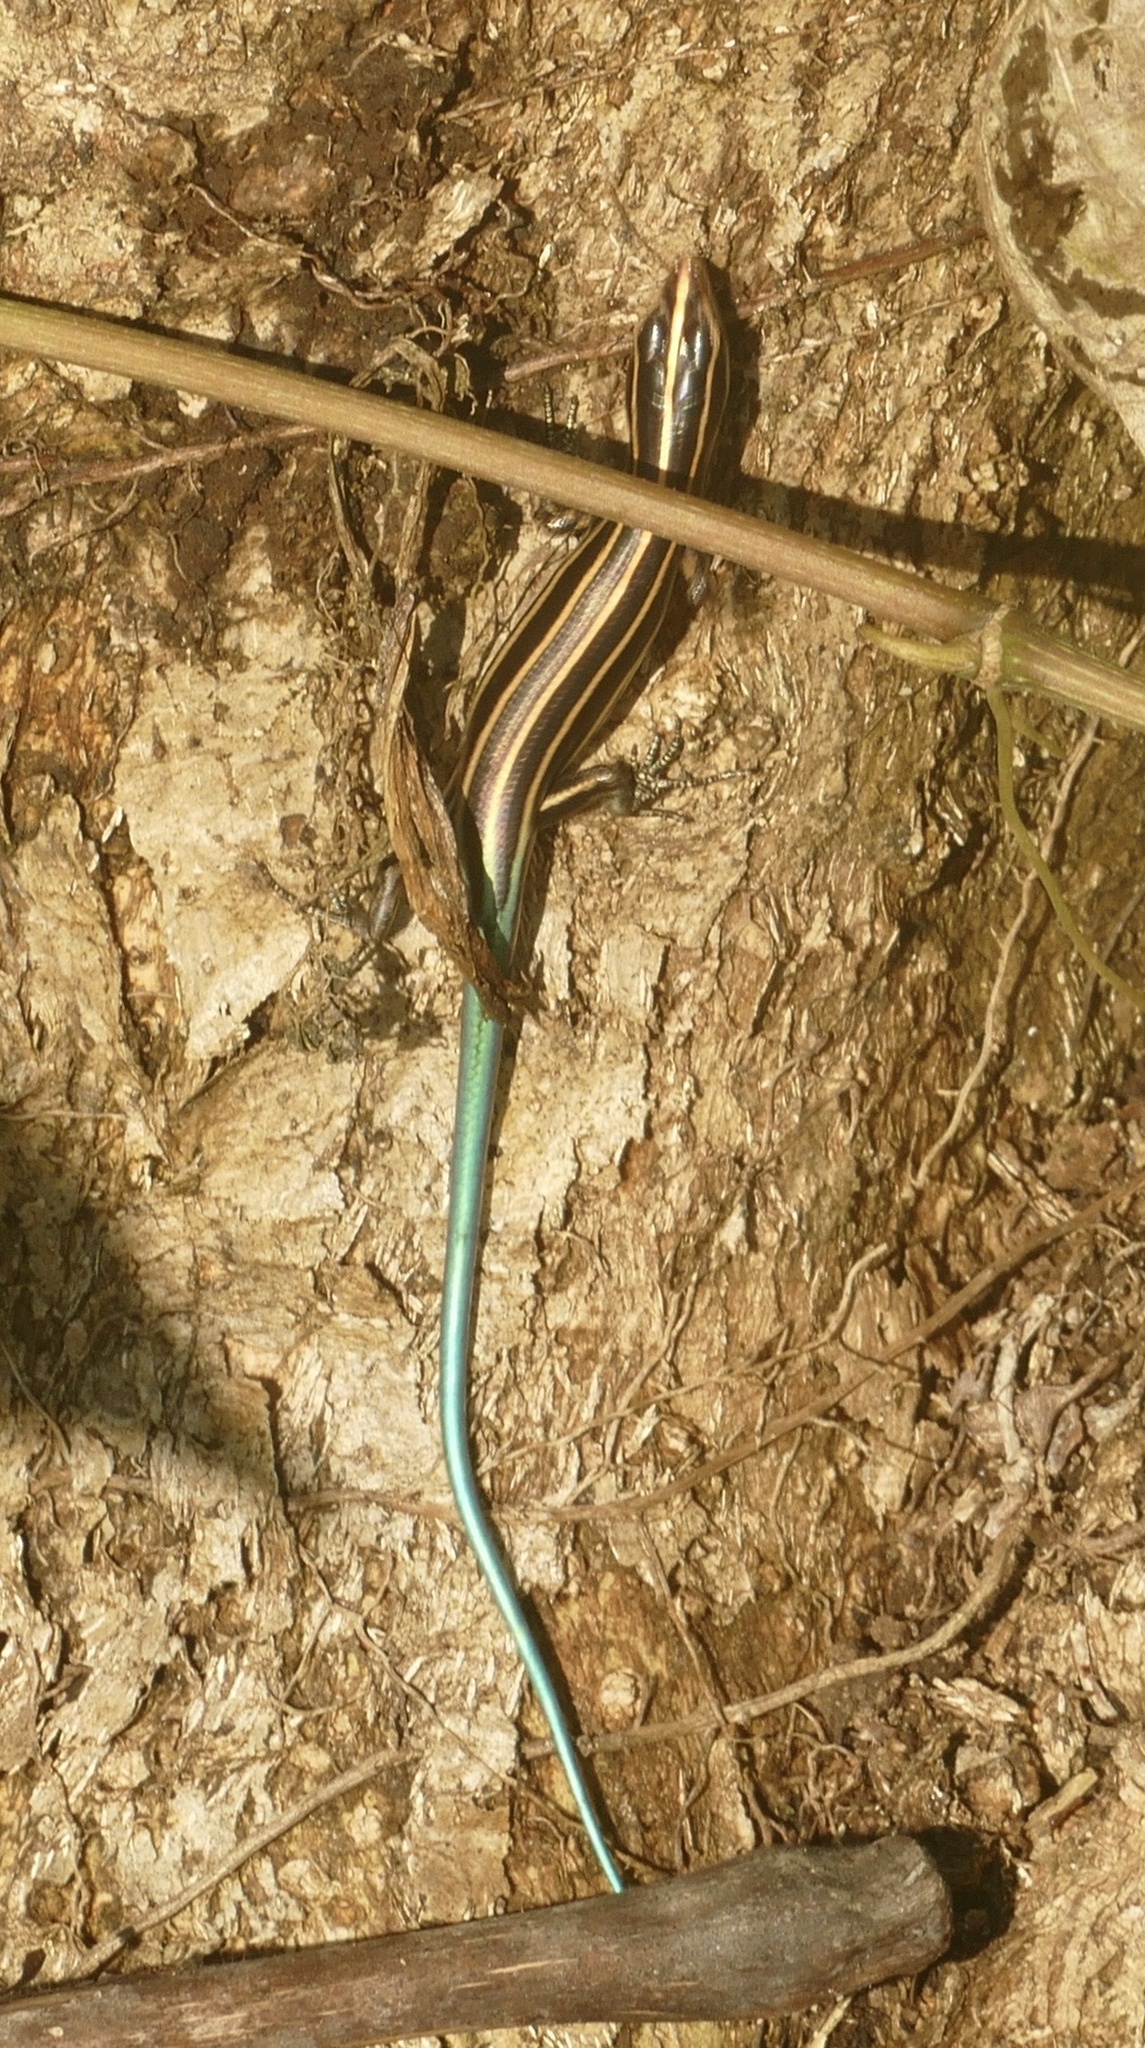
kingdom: Animalia
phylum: Chordata
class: Squamata
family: Scincidae
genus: Emoia
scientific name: Emoia caeruleocauda
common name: Pacific bluetail skink
